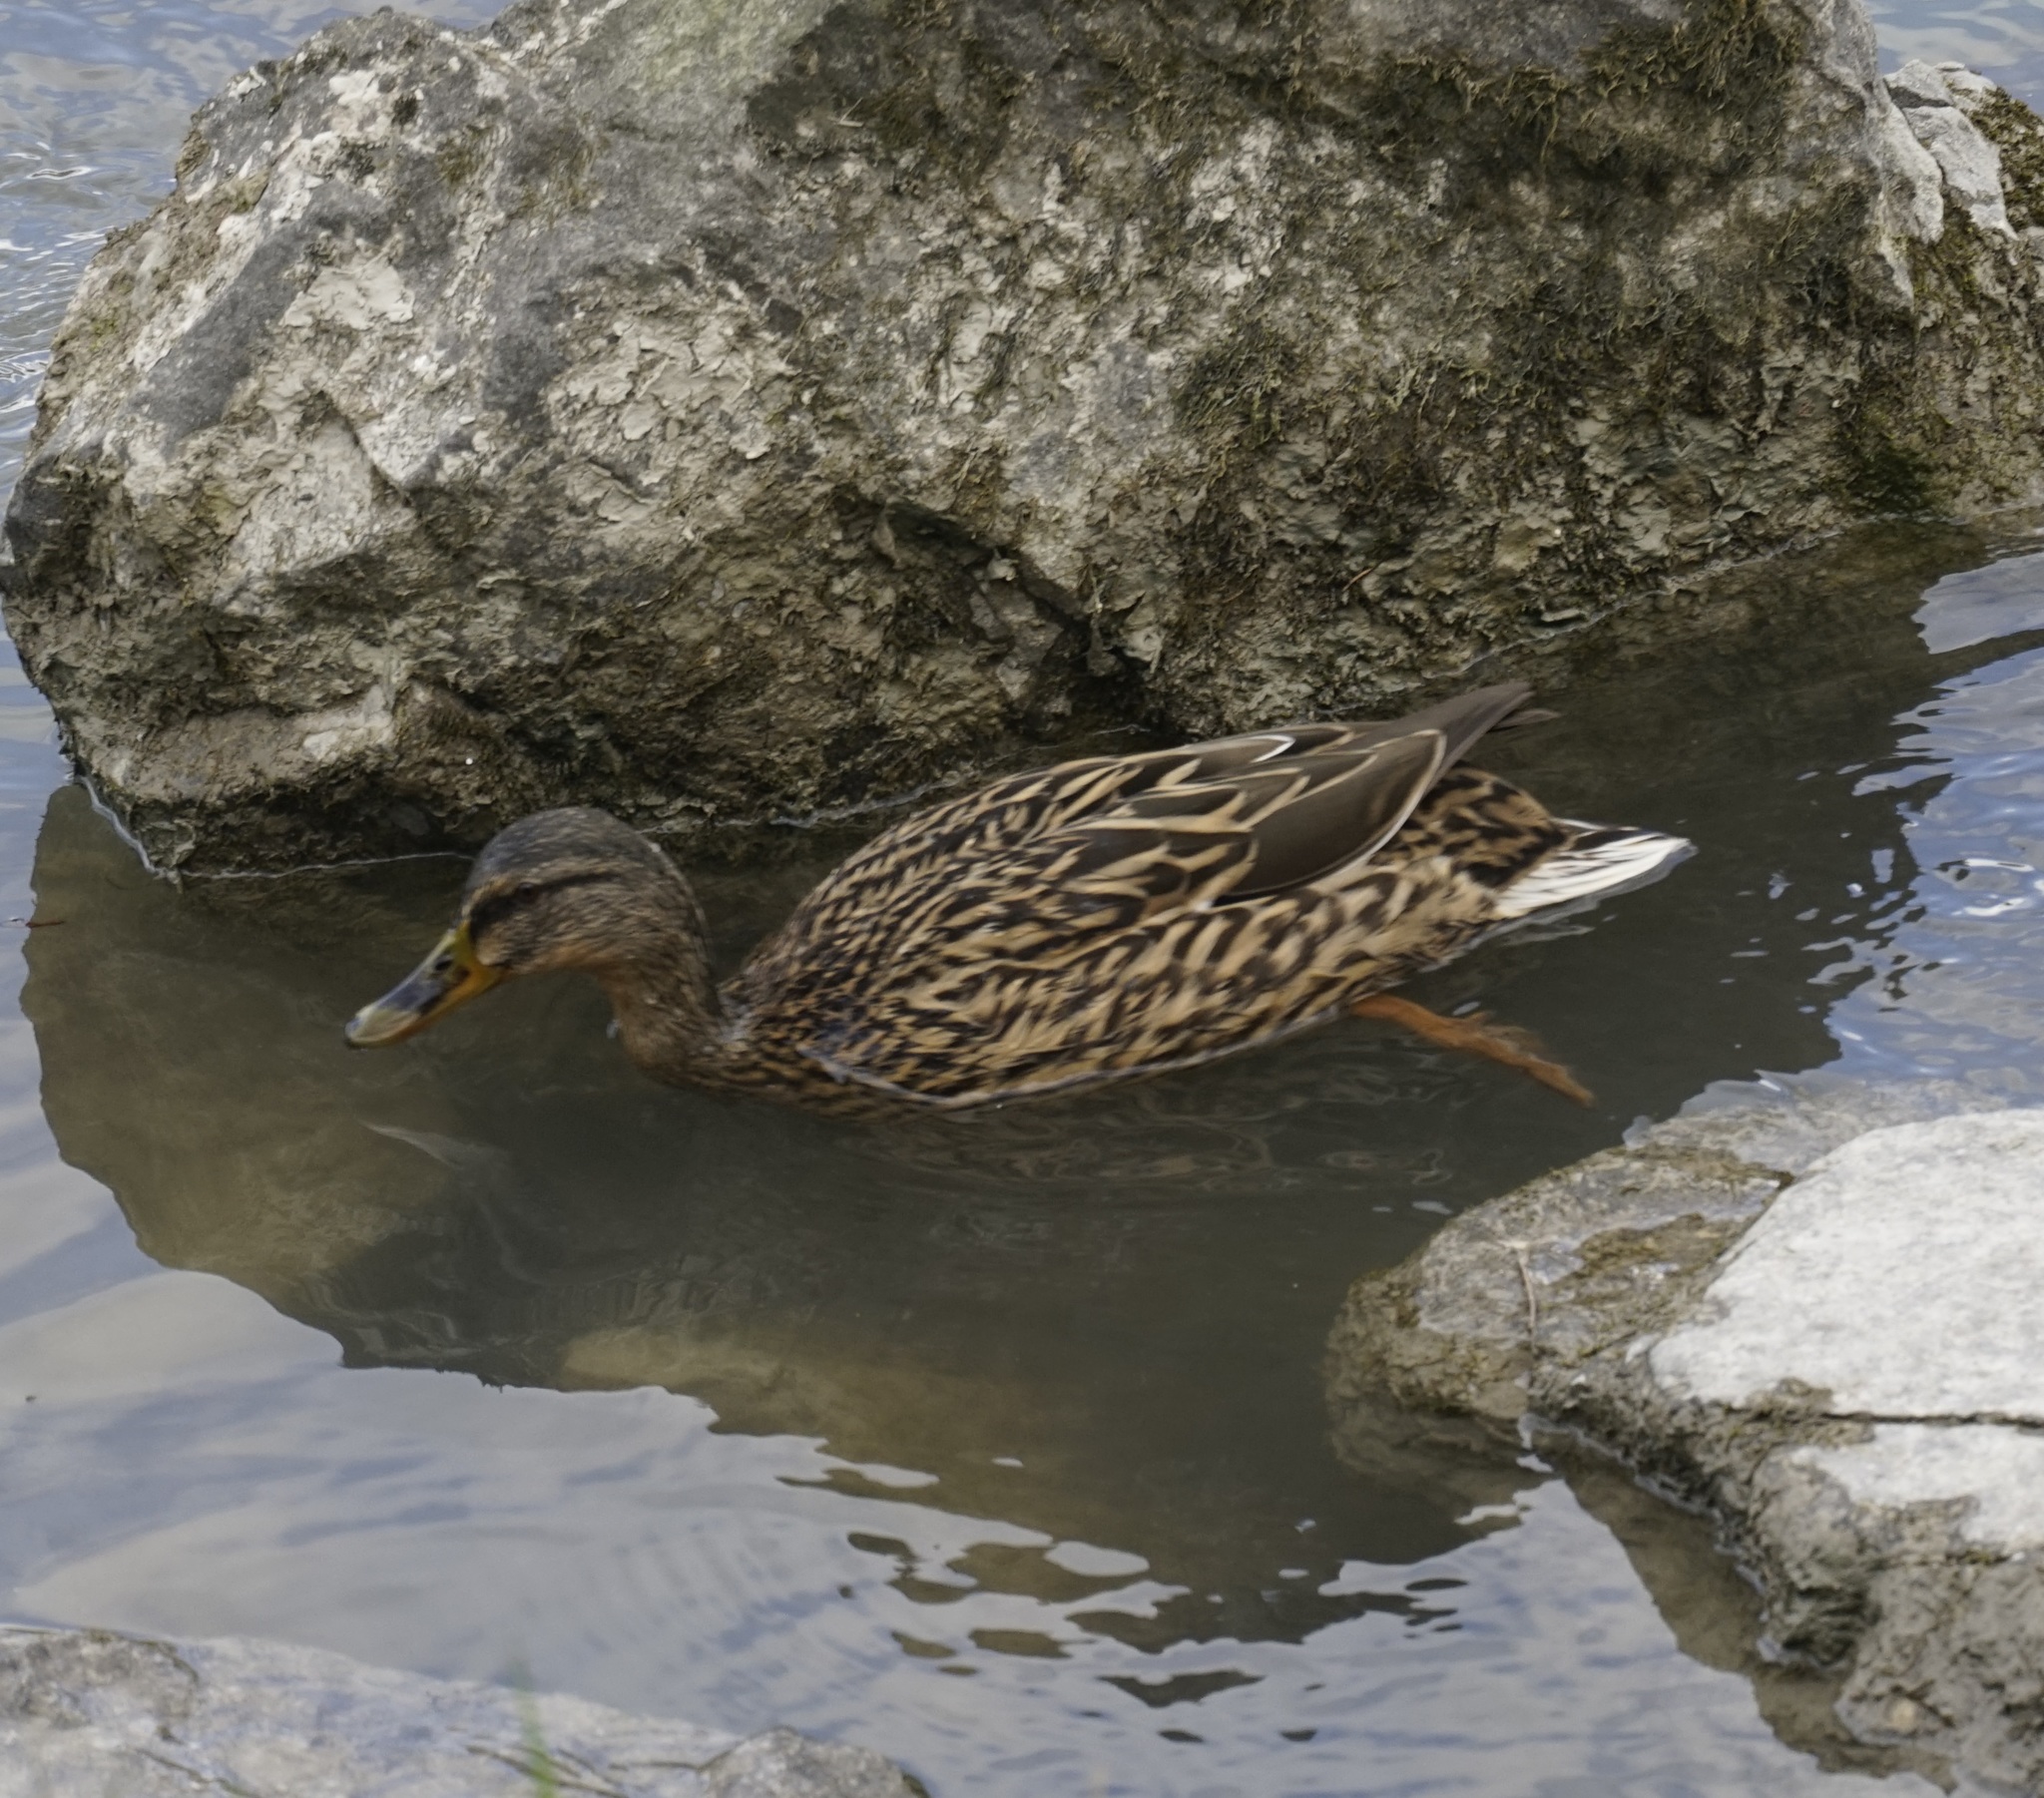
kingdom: Animalia
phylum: Chordata
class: Aves
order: Anseriformes
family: Anatidae
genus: Anas
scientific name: Anas platyrhynchos
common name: Mallard
